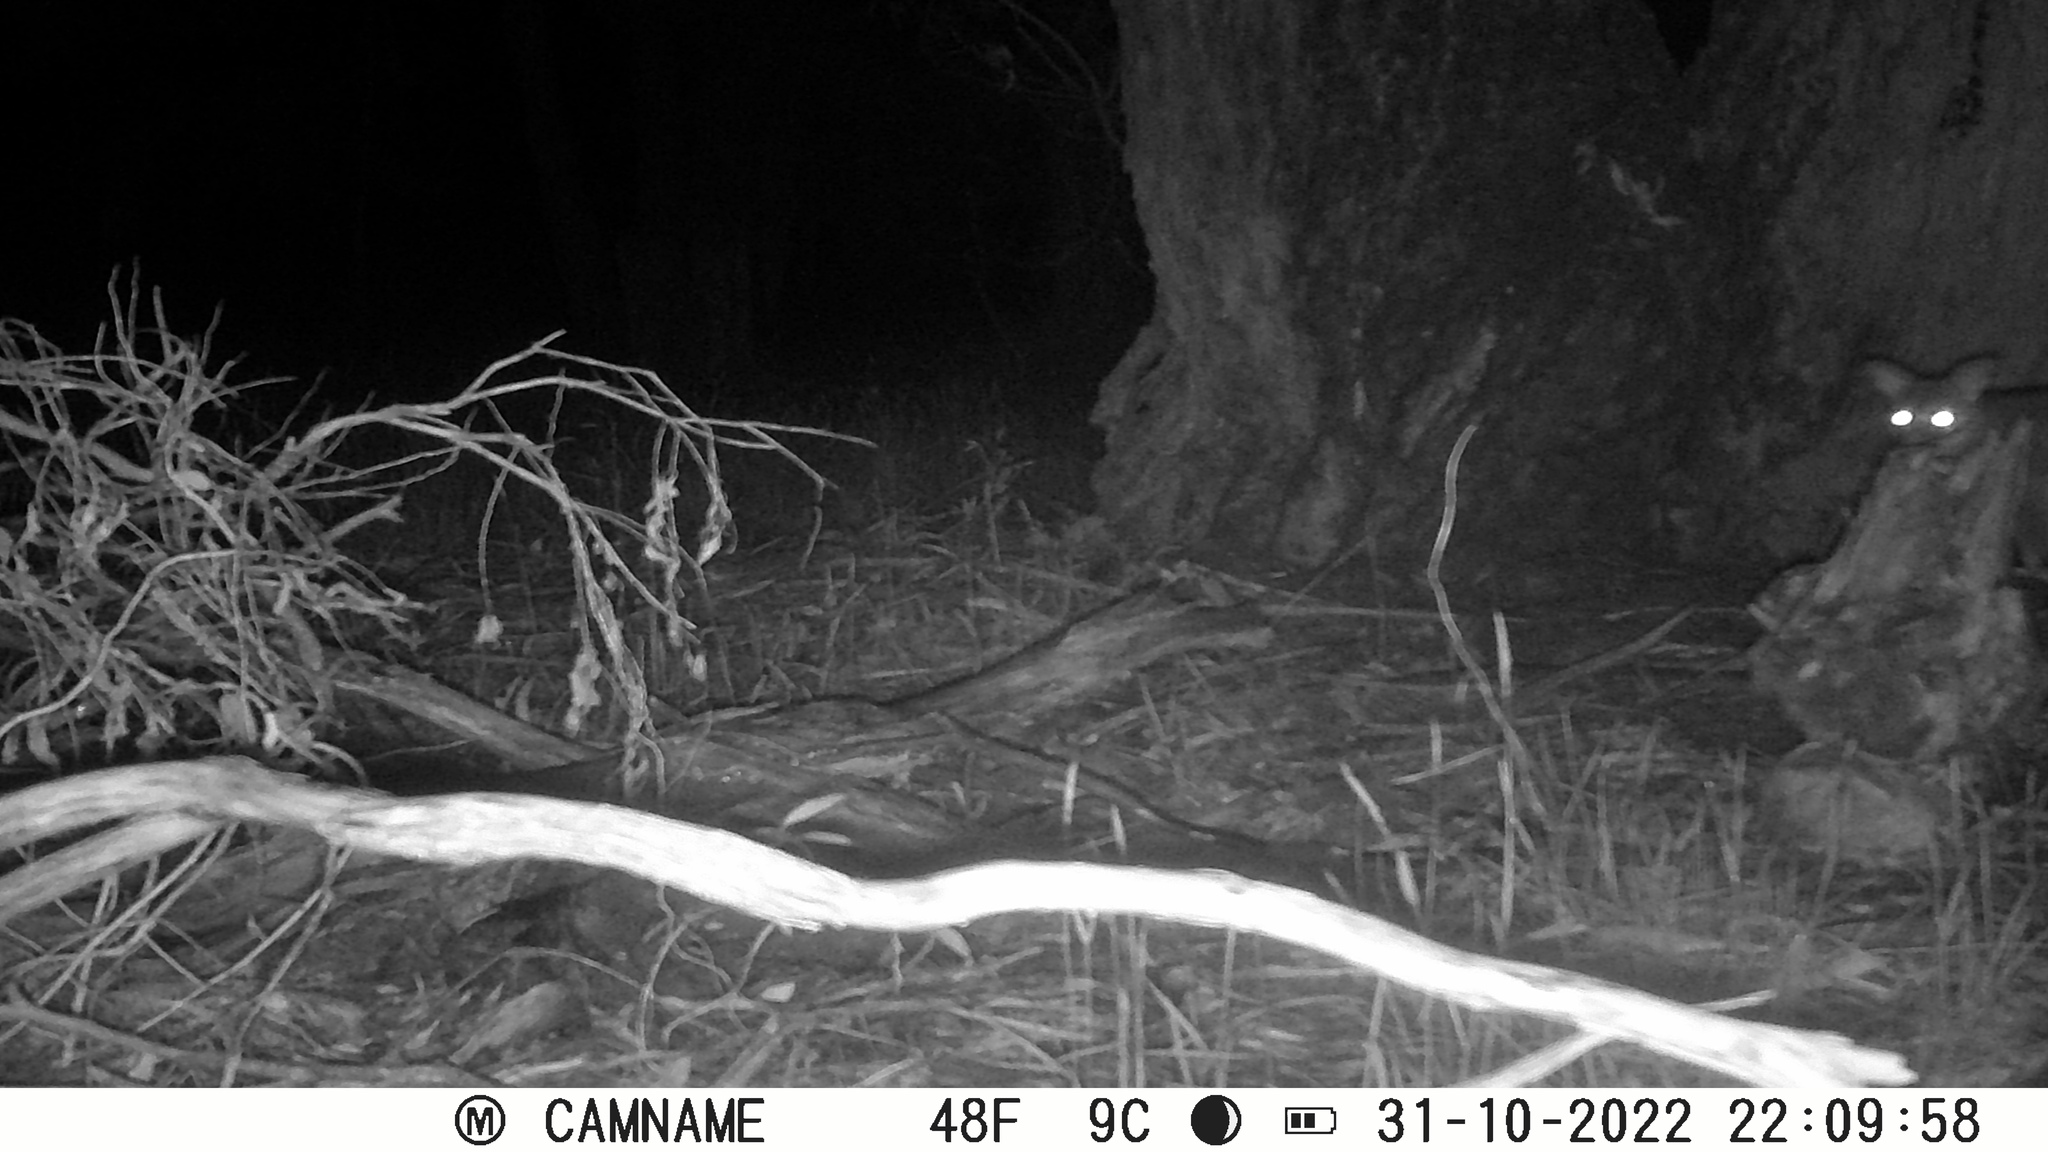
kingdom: Animalia
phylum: Chordata
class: Mammalia
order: Diprotodontia
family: Phalangeridae
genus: Trichosurus
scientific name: Trichosurus vulpecula
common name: Common brushtail
